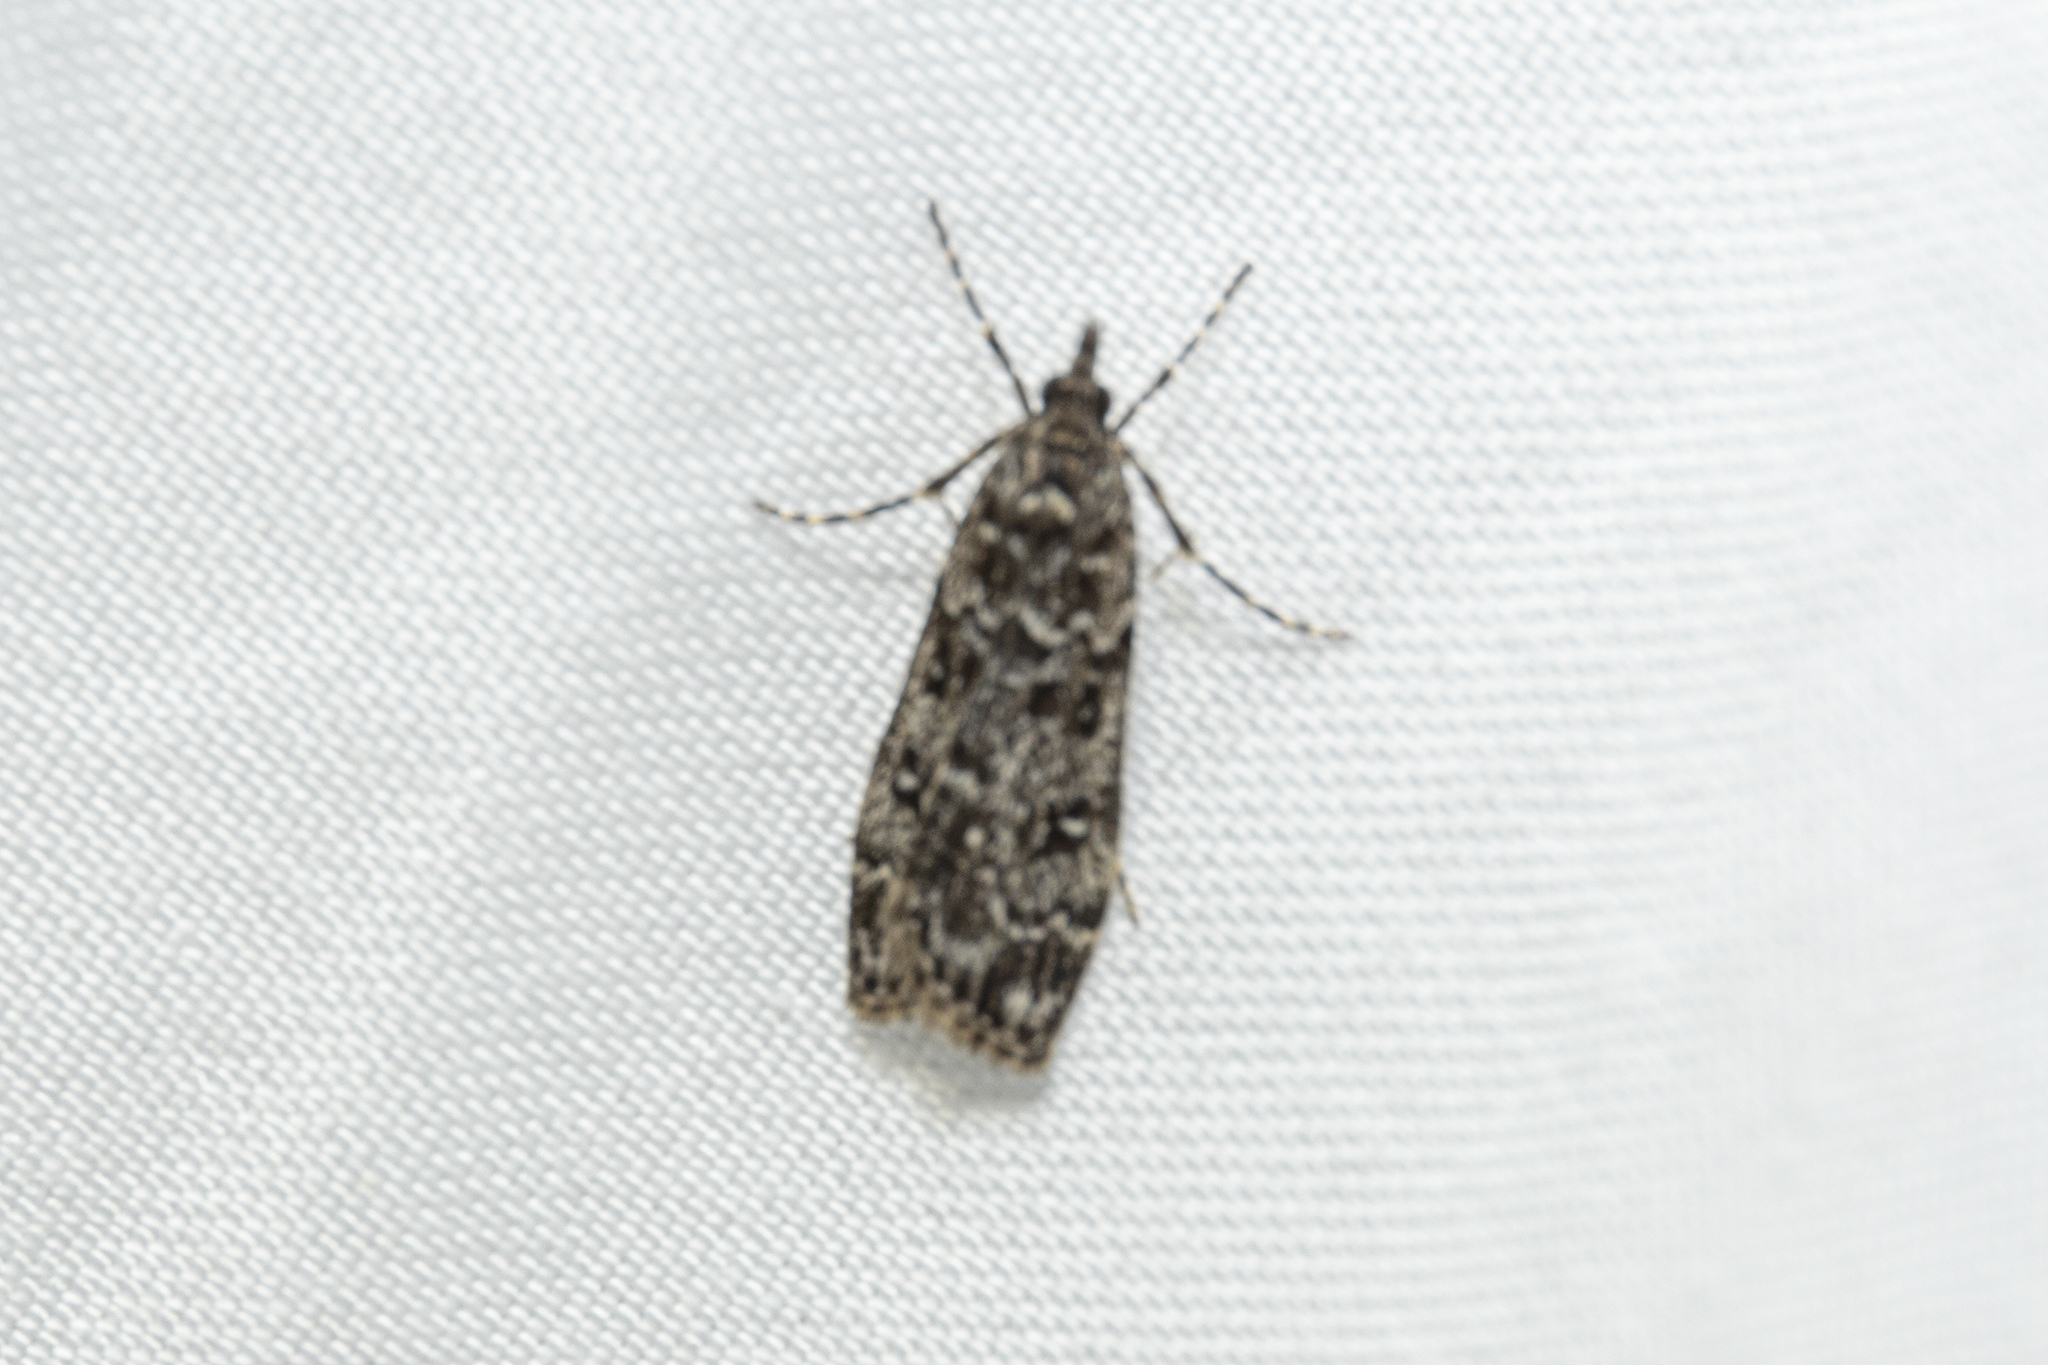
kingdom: Animalia
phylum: Arthropoda
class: Insecta
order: Lepidoptera
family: Crambidae
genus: Eudonia
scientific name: Eudonia philerga
